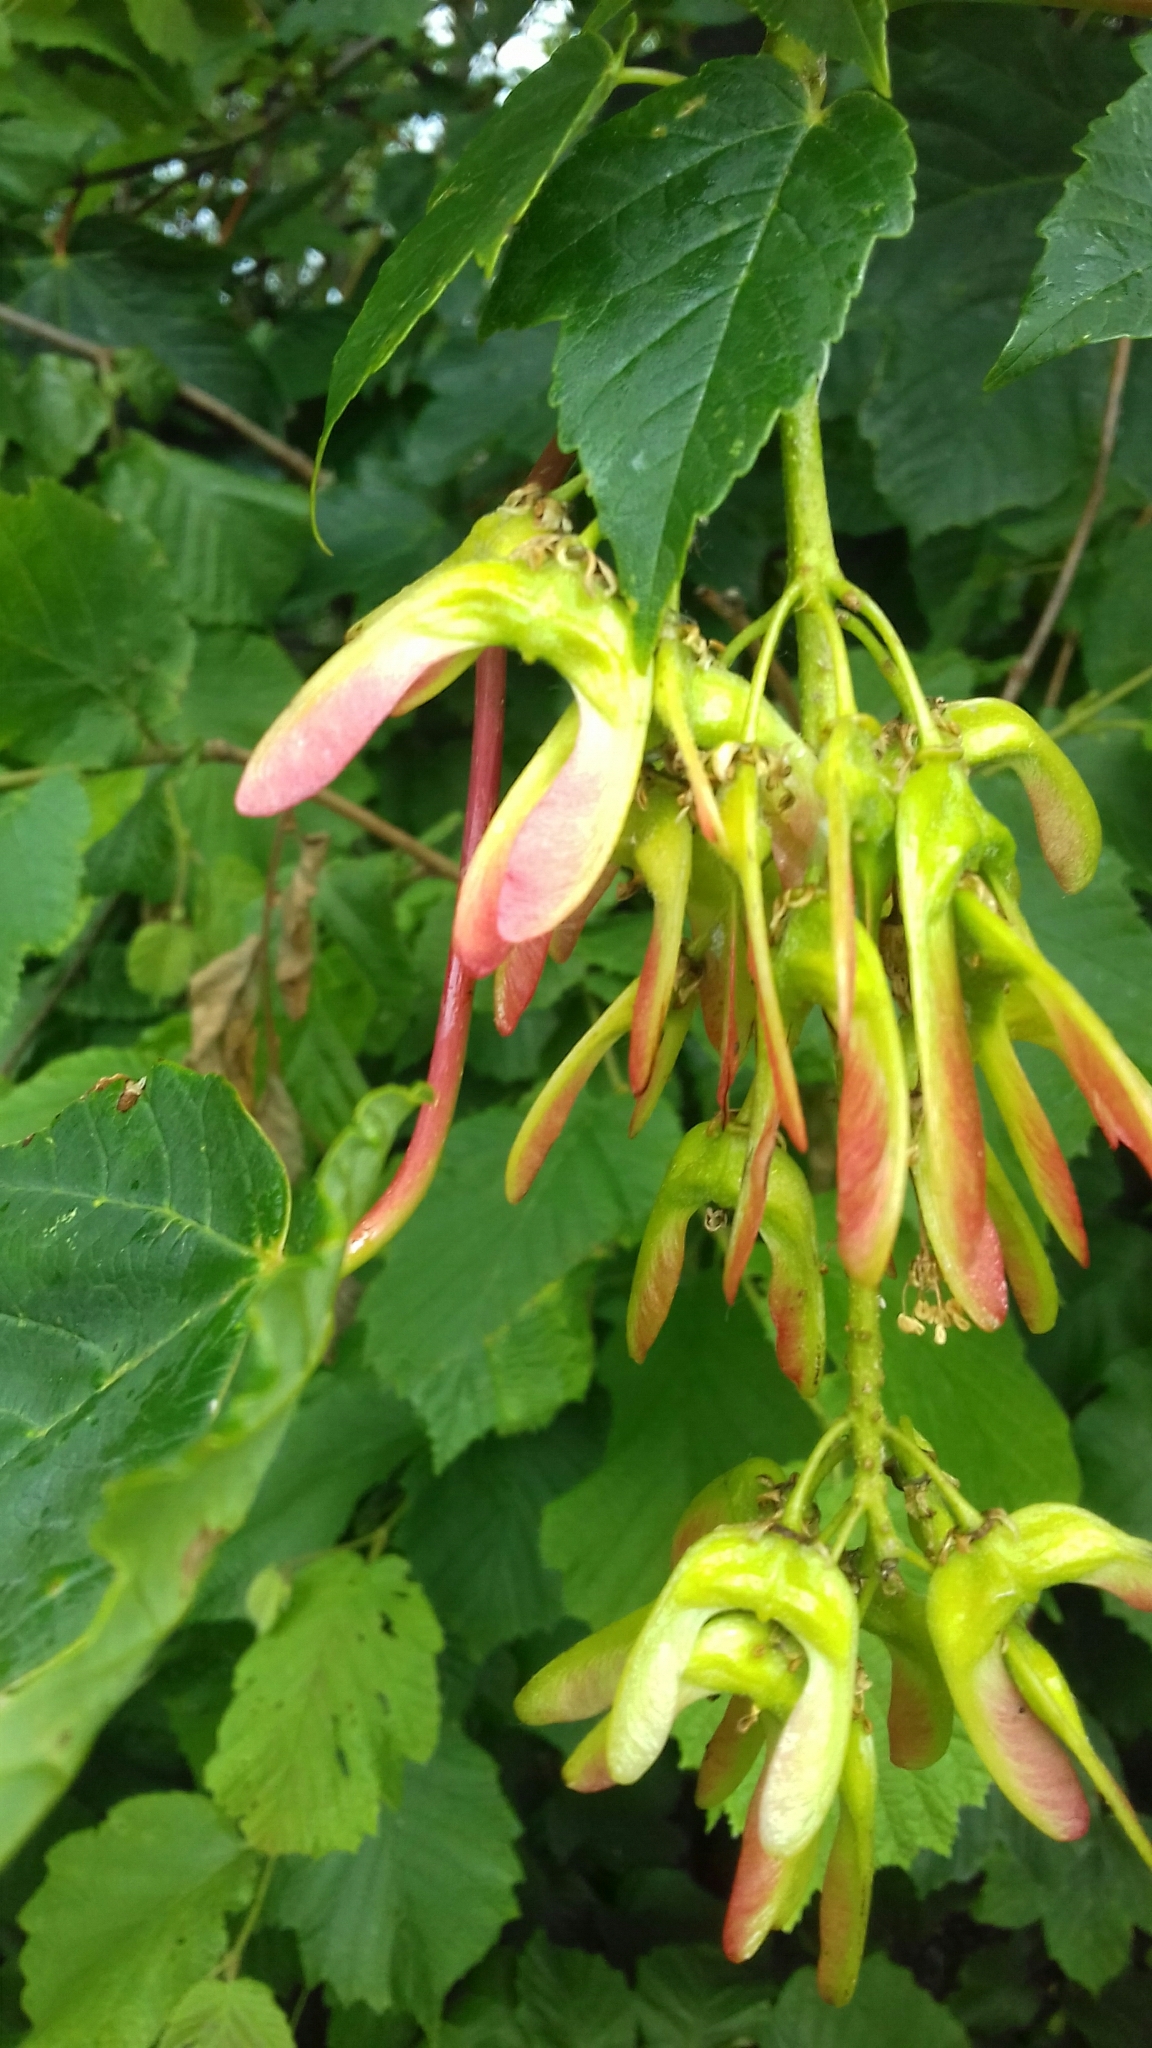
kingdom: Plantae
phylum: Tracheophyta
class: Magnoliopsida
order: Sapindales
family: Sapindaceae
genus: Acer
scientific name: Acer pseudoplatanus
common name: Sycamore
